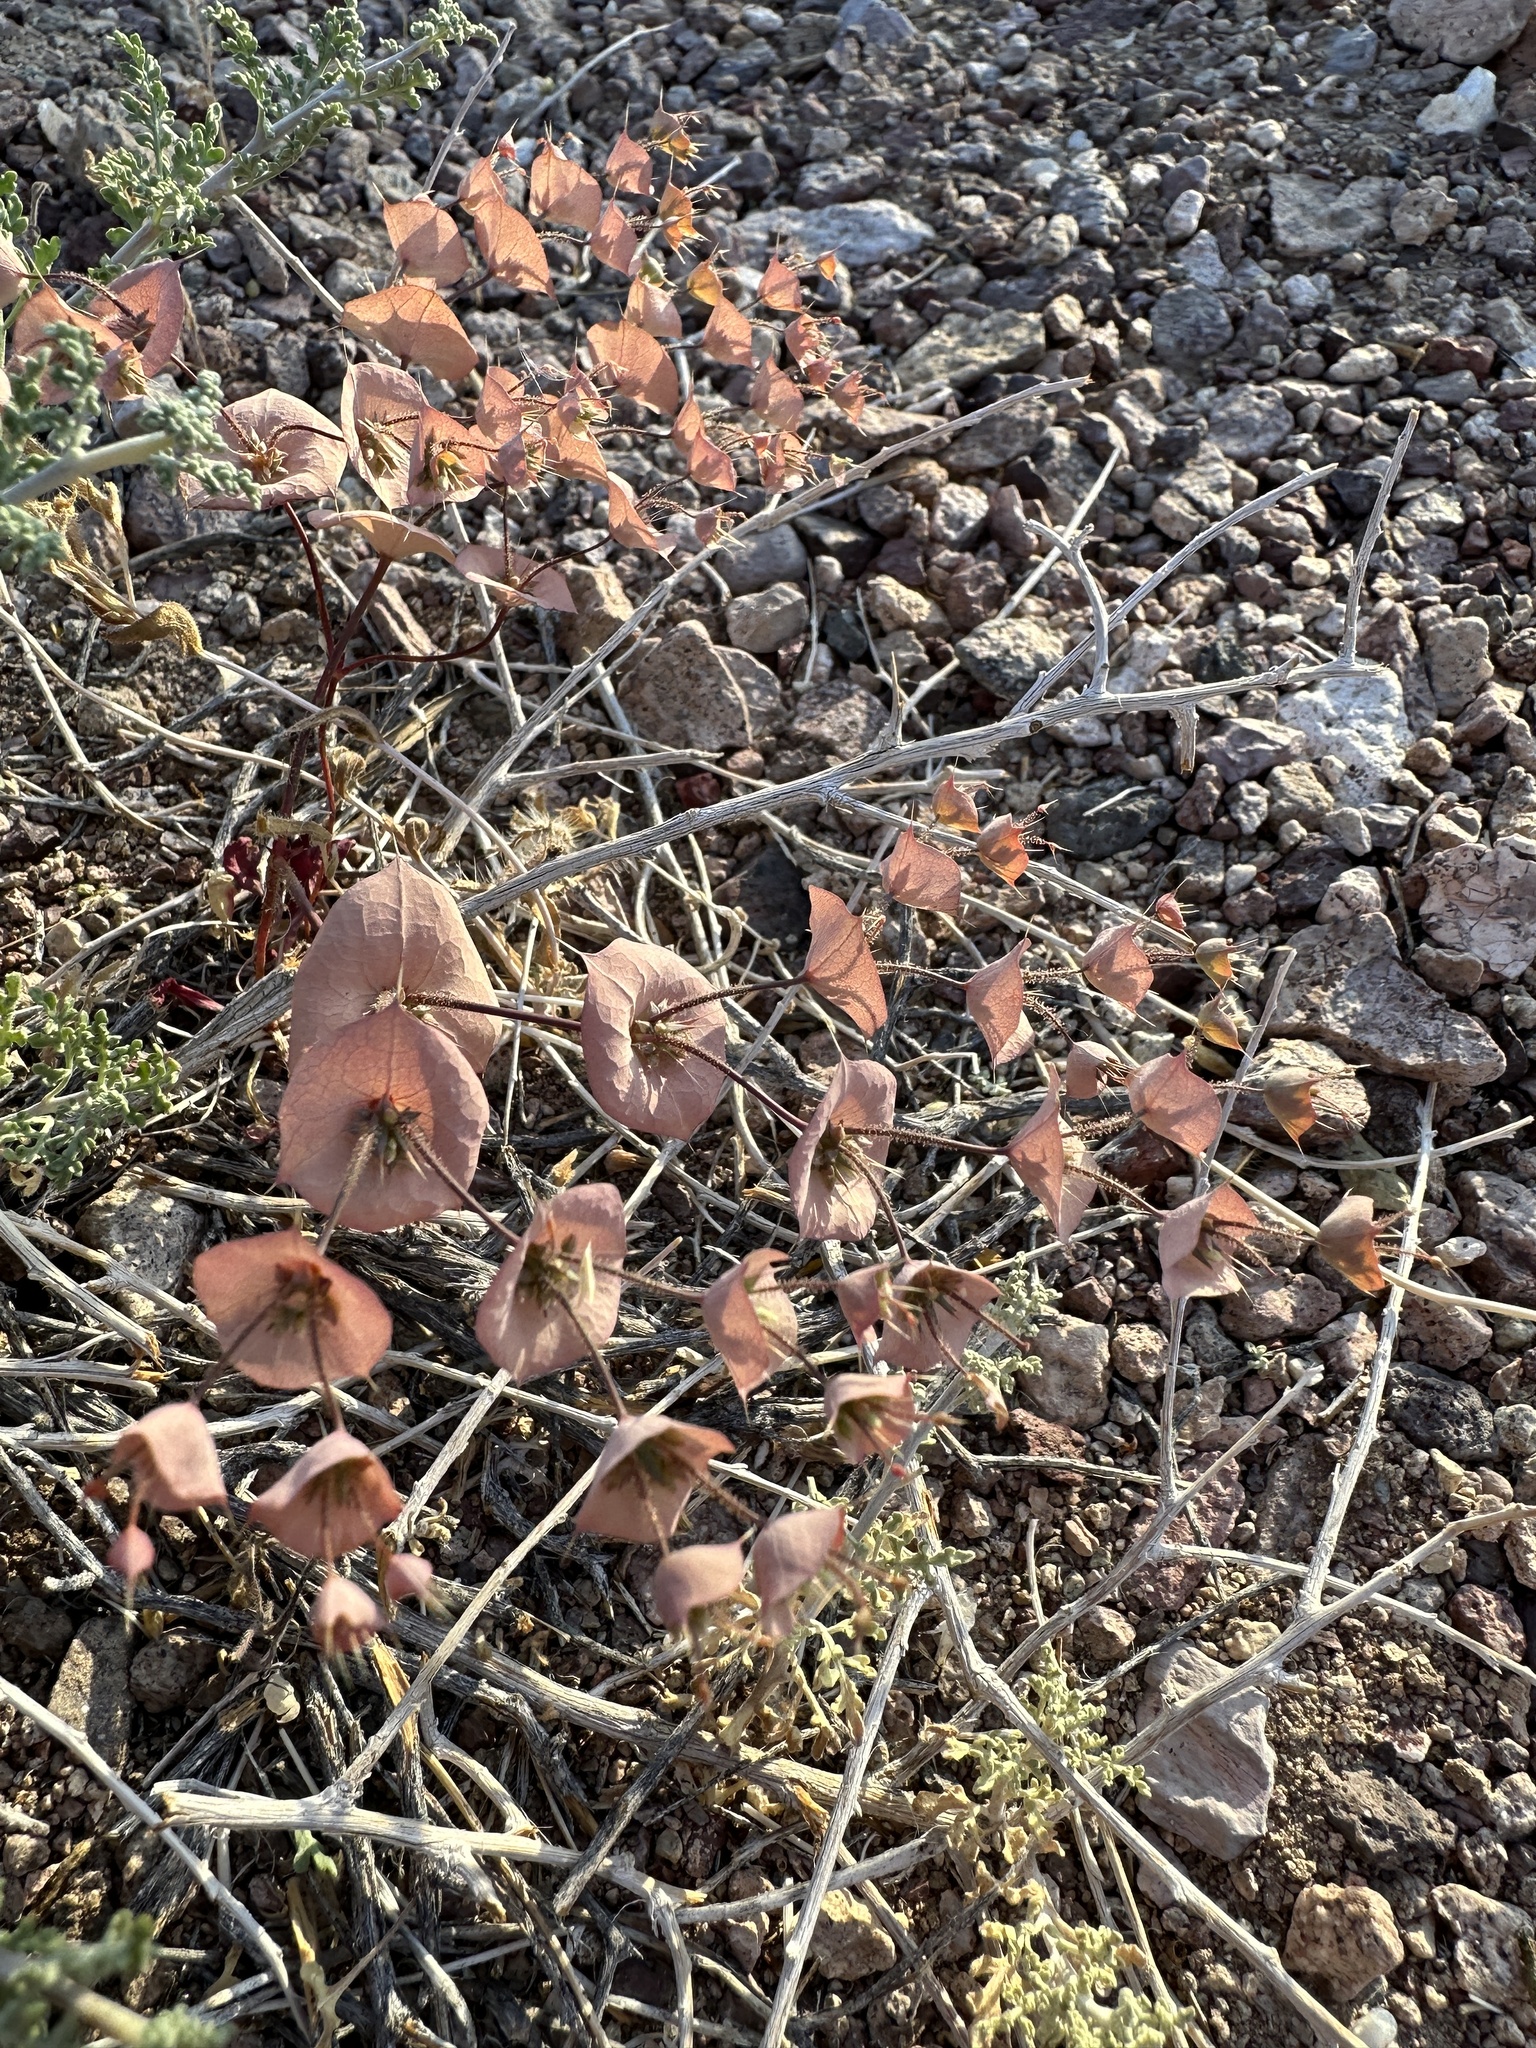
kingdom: Plantae
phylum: Tracheophyta
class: Magnoliopsida
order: Caryophyllales
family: Polygonaceae
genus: Oxytheca
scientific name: Oxytheca perfoliata
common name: Round-leaf puncturebract
